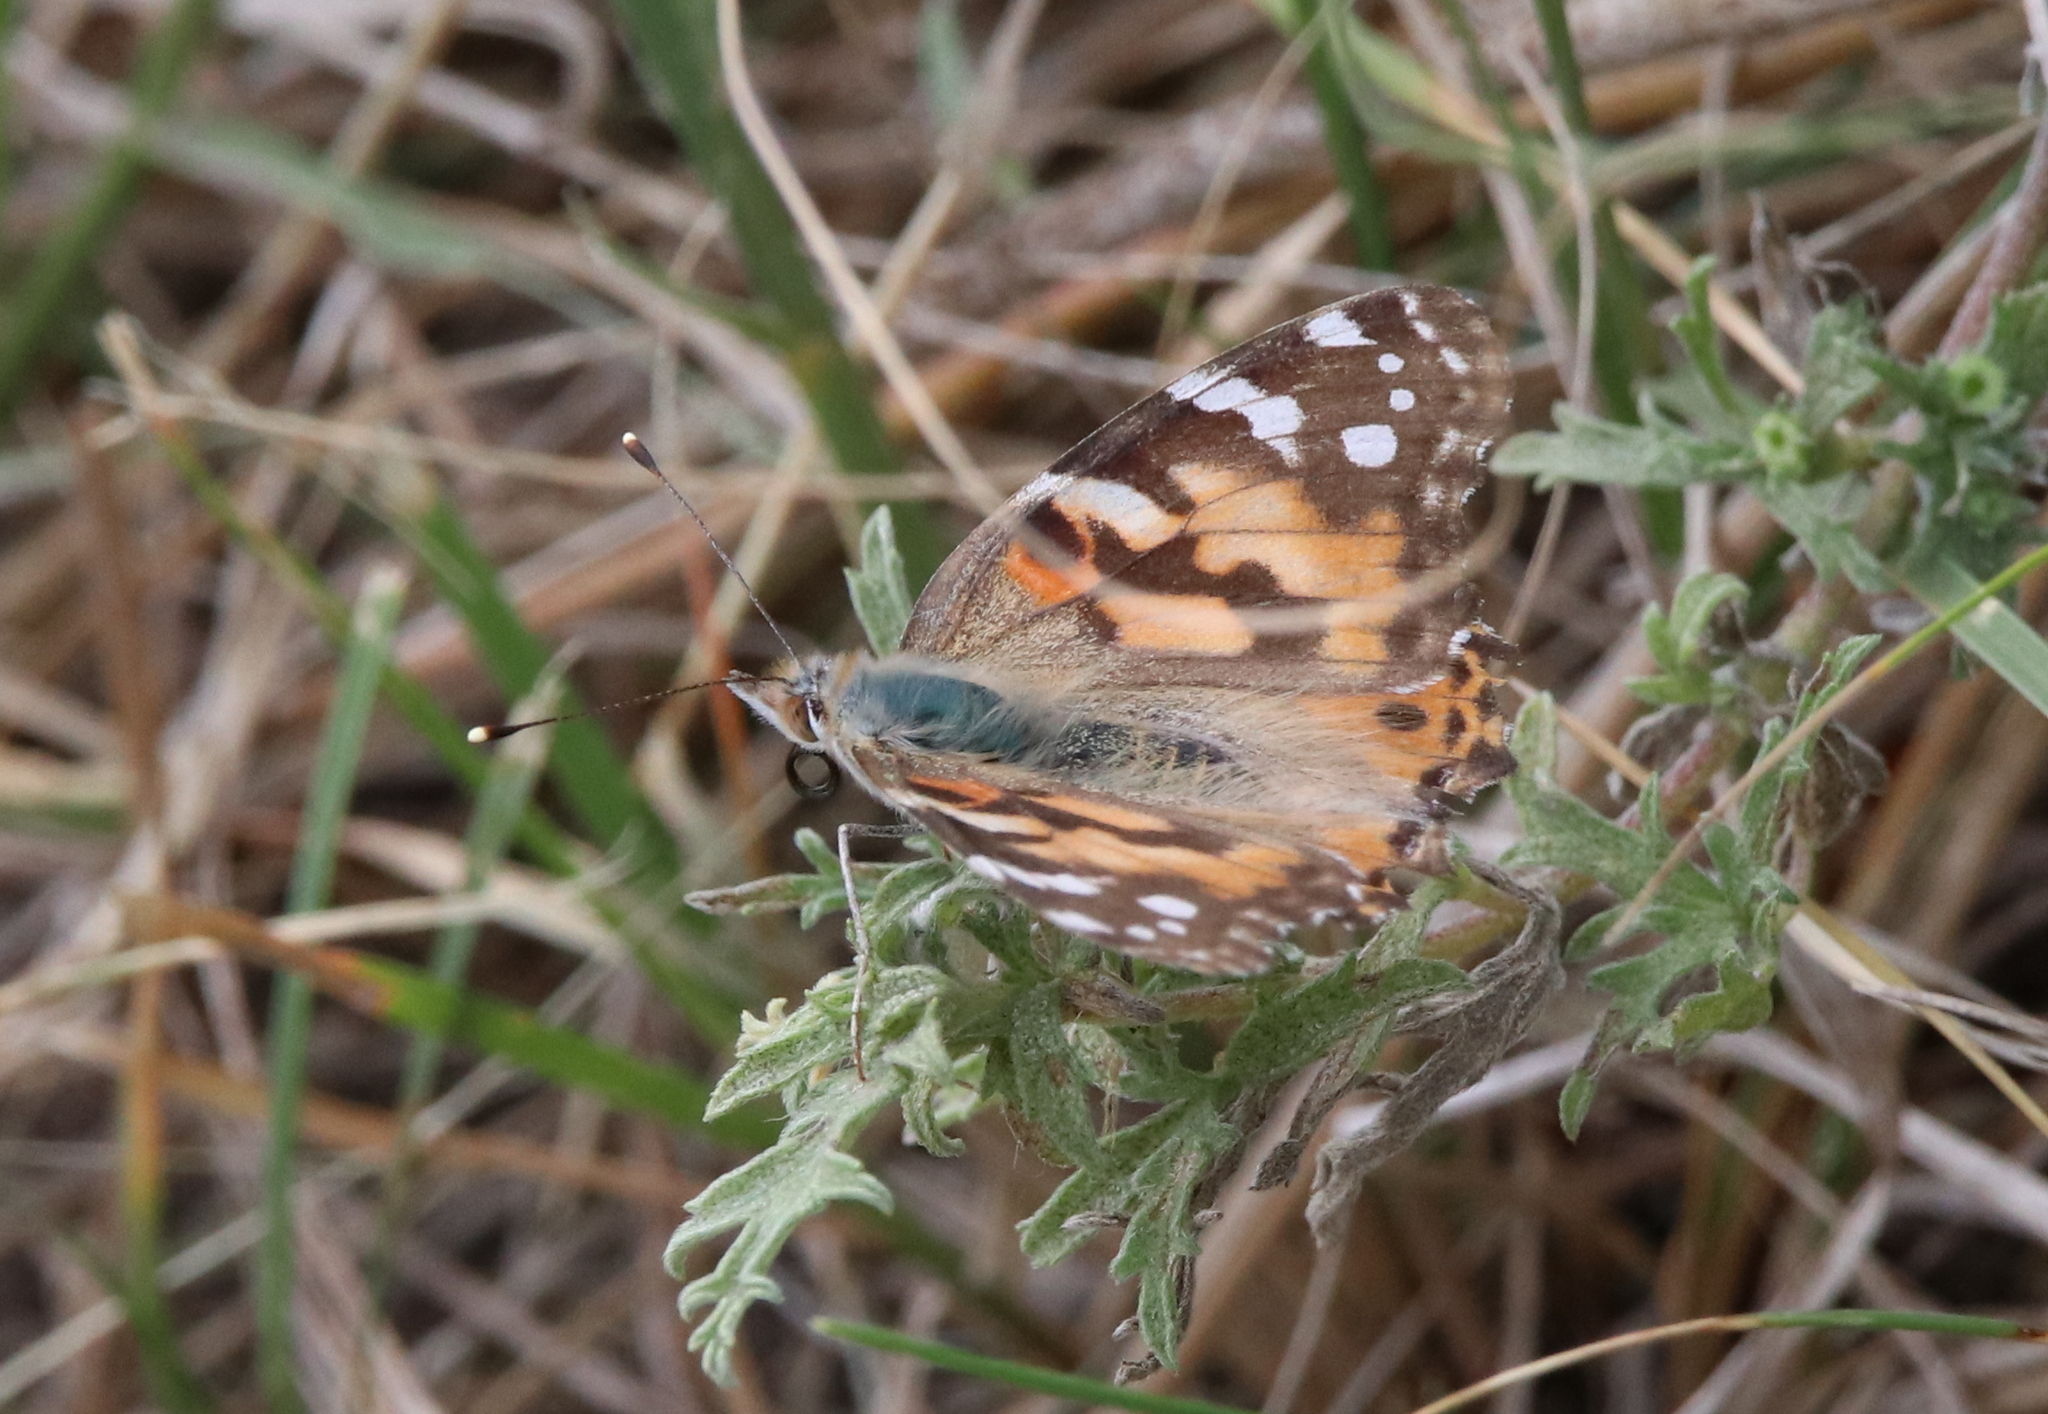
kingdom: Animalia
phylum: Arthropoda
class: Insecta
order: Lepidoptera
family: Nymphalidae
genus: Vanessa
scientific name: Vanessa cardui
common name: Painted lady
